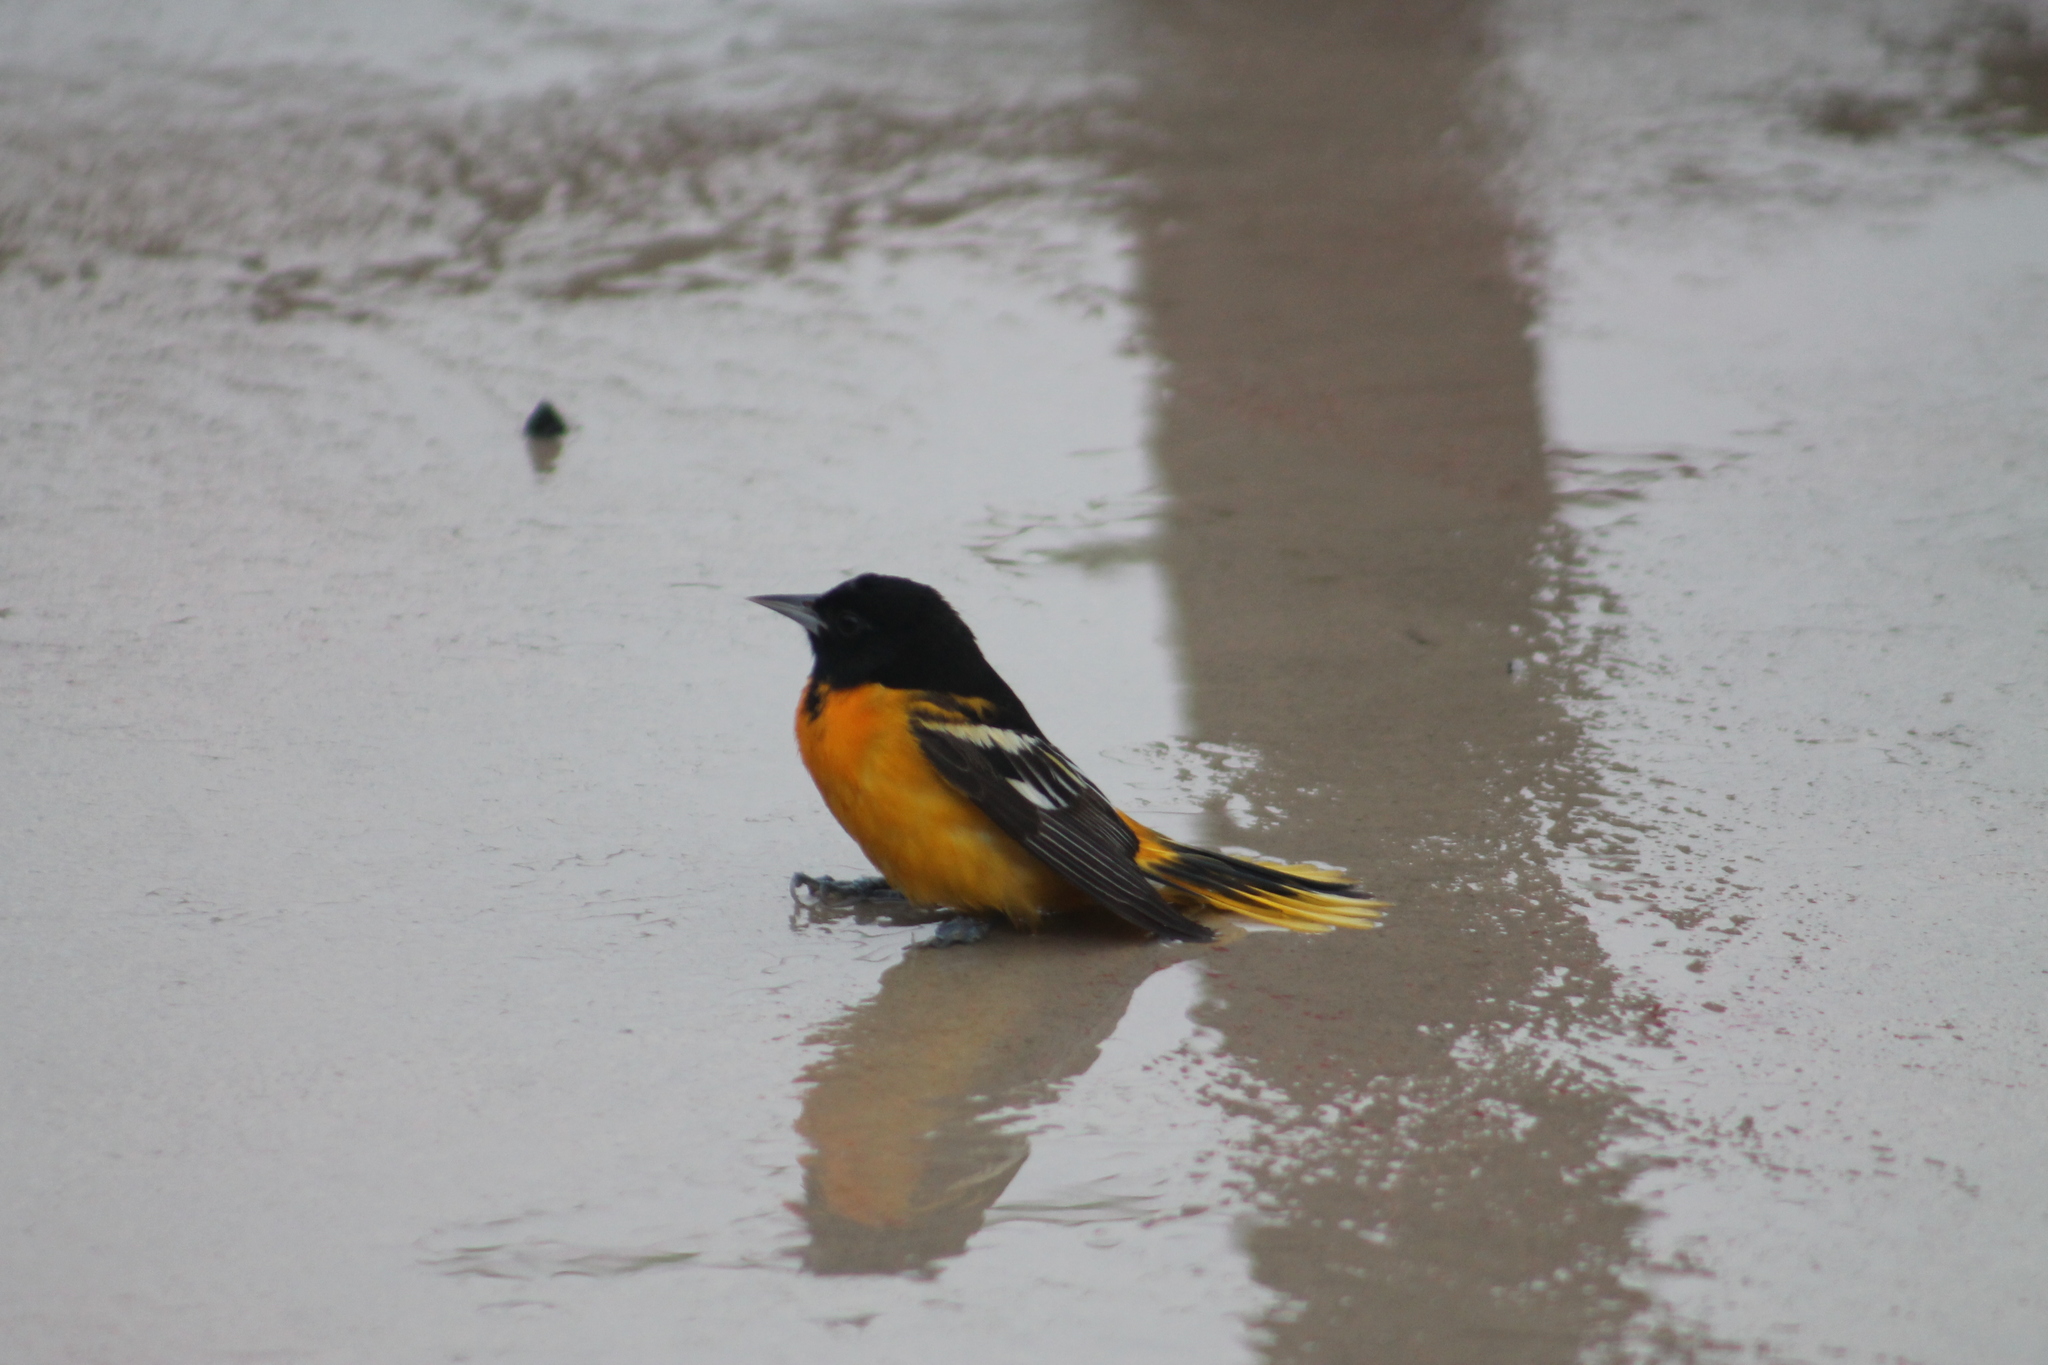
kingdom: Animalia
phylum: Chordata
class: Aves
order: Passeriformes
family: Icteridae
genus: Icterus
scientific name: Icterus galbula
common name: Baltimore oriole
